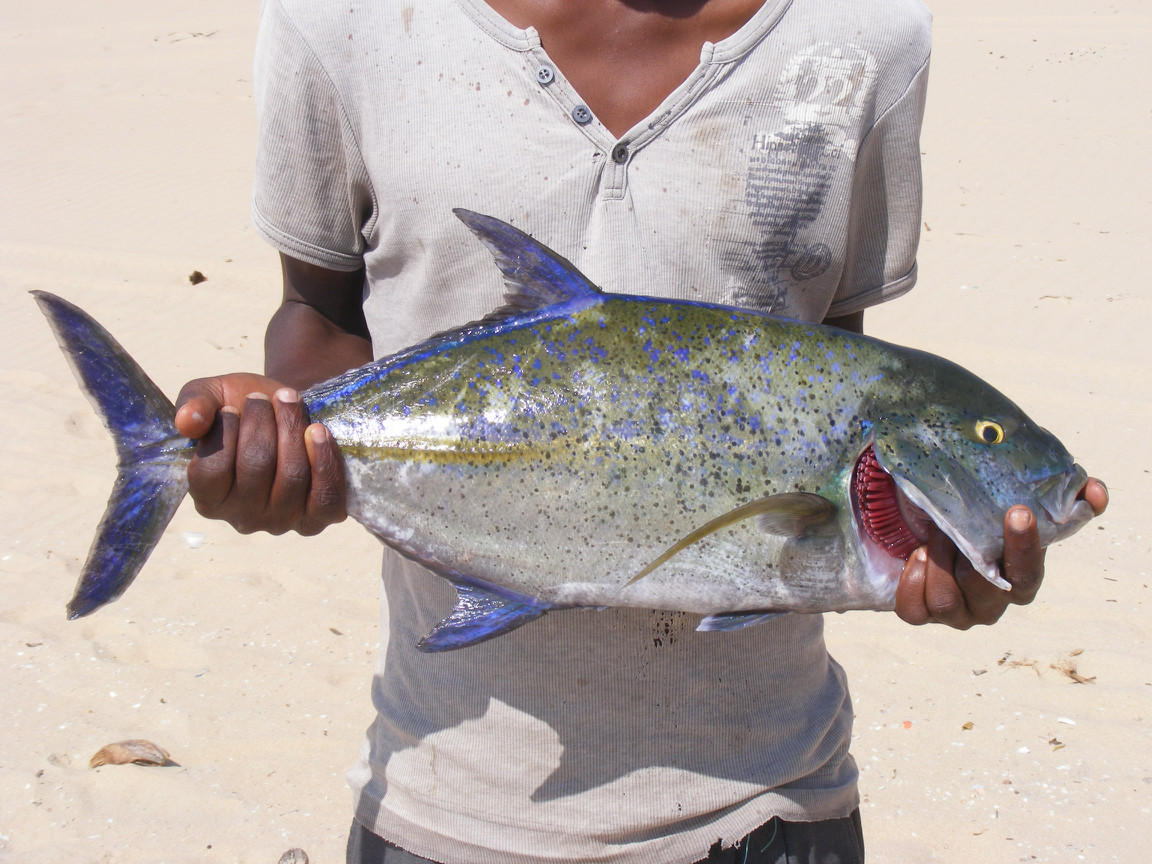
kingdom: Animalia
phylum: Chordata
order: Perciformes
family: Carangidae
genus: Caranx
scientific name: Caranx melampygus
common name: Bluefin trevally
